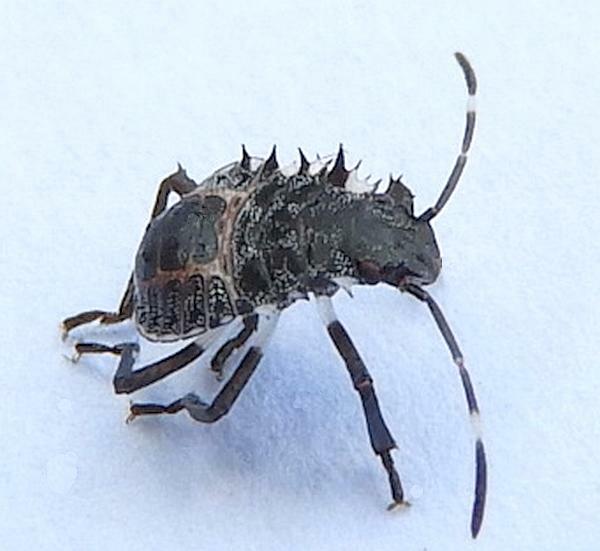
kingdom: Animalia
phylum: Arthropoda
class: Insecta
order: Hemiptera
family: Pentatomidae
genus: Halyomorpha
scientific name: Halyomorpha halys
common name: Brown marmorated stink bug
